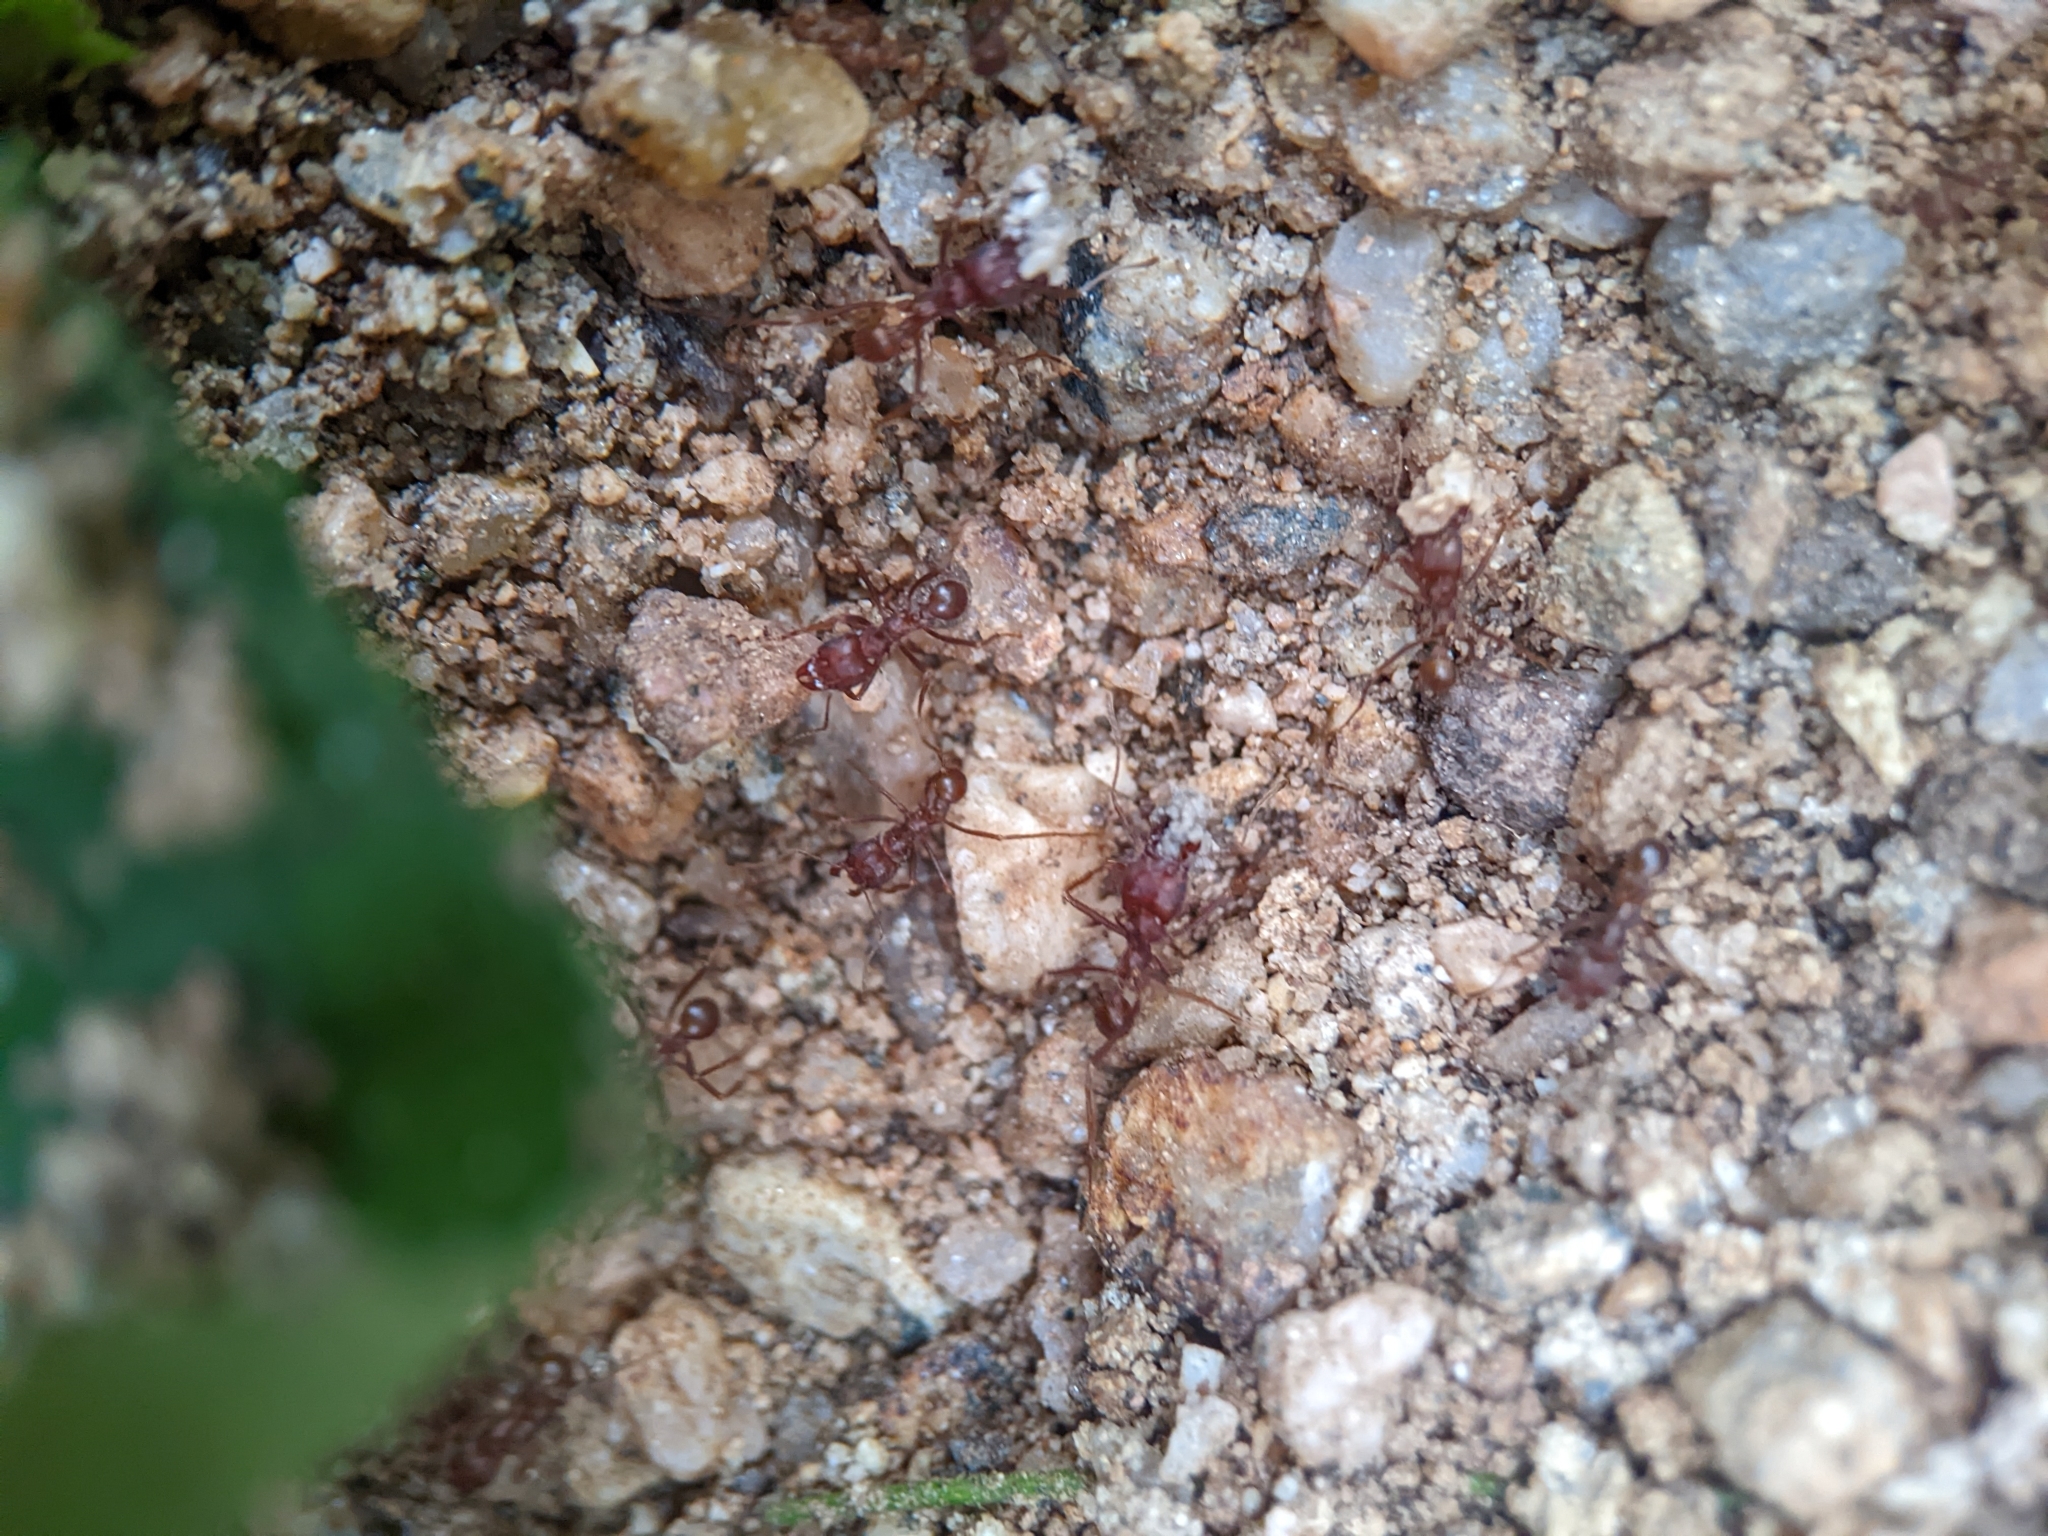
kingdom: Animalia
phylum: Arthropoda
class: Insecta
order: Hymenoptera
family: Formicidae
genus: Atta
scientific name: Atta mexicana
